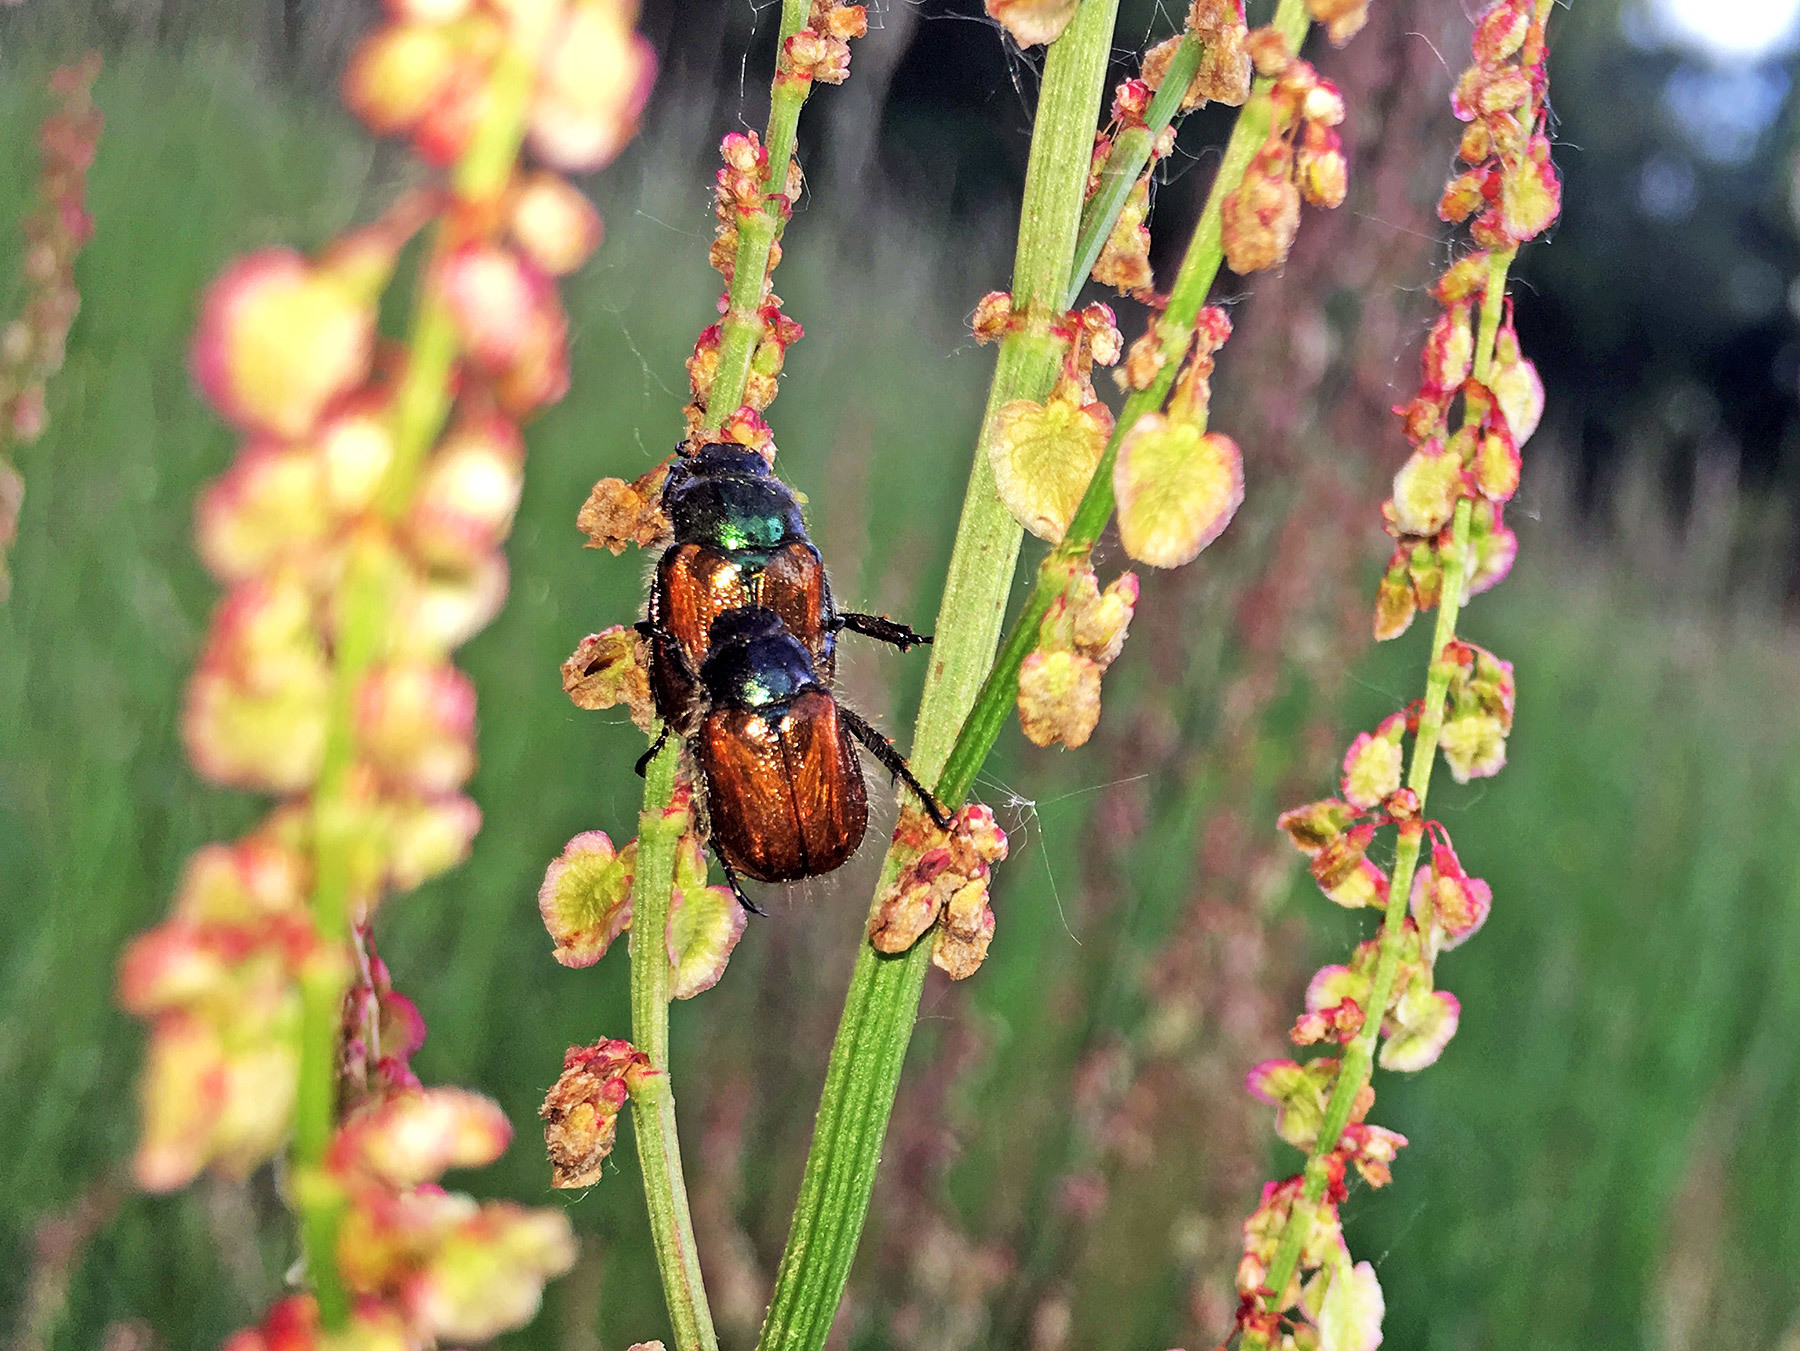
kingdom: Animalia
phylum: Arthropoda
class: Insecta
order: Coleoptera
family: Scarabaeidae
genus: Phyllopertha
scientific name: Phyllopertha horticola
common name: Garden chafer
